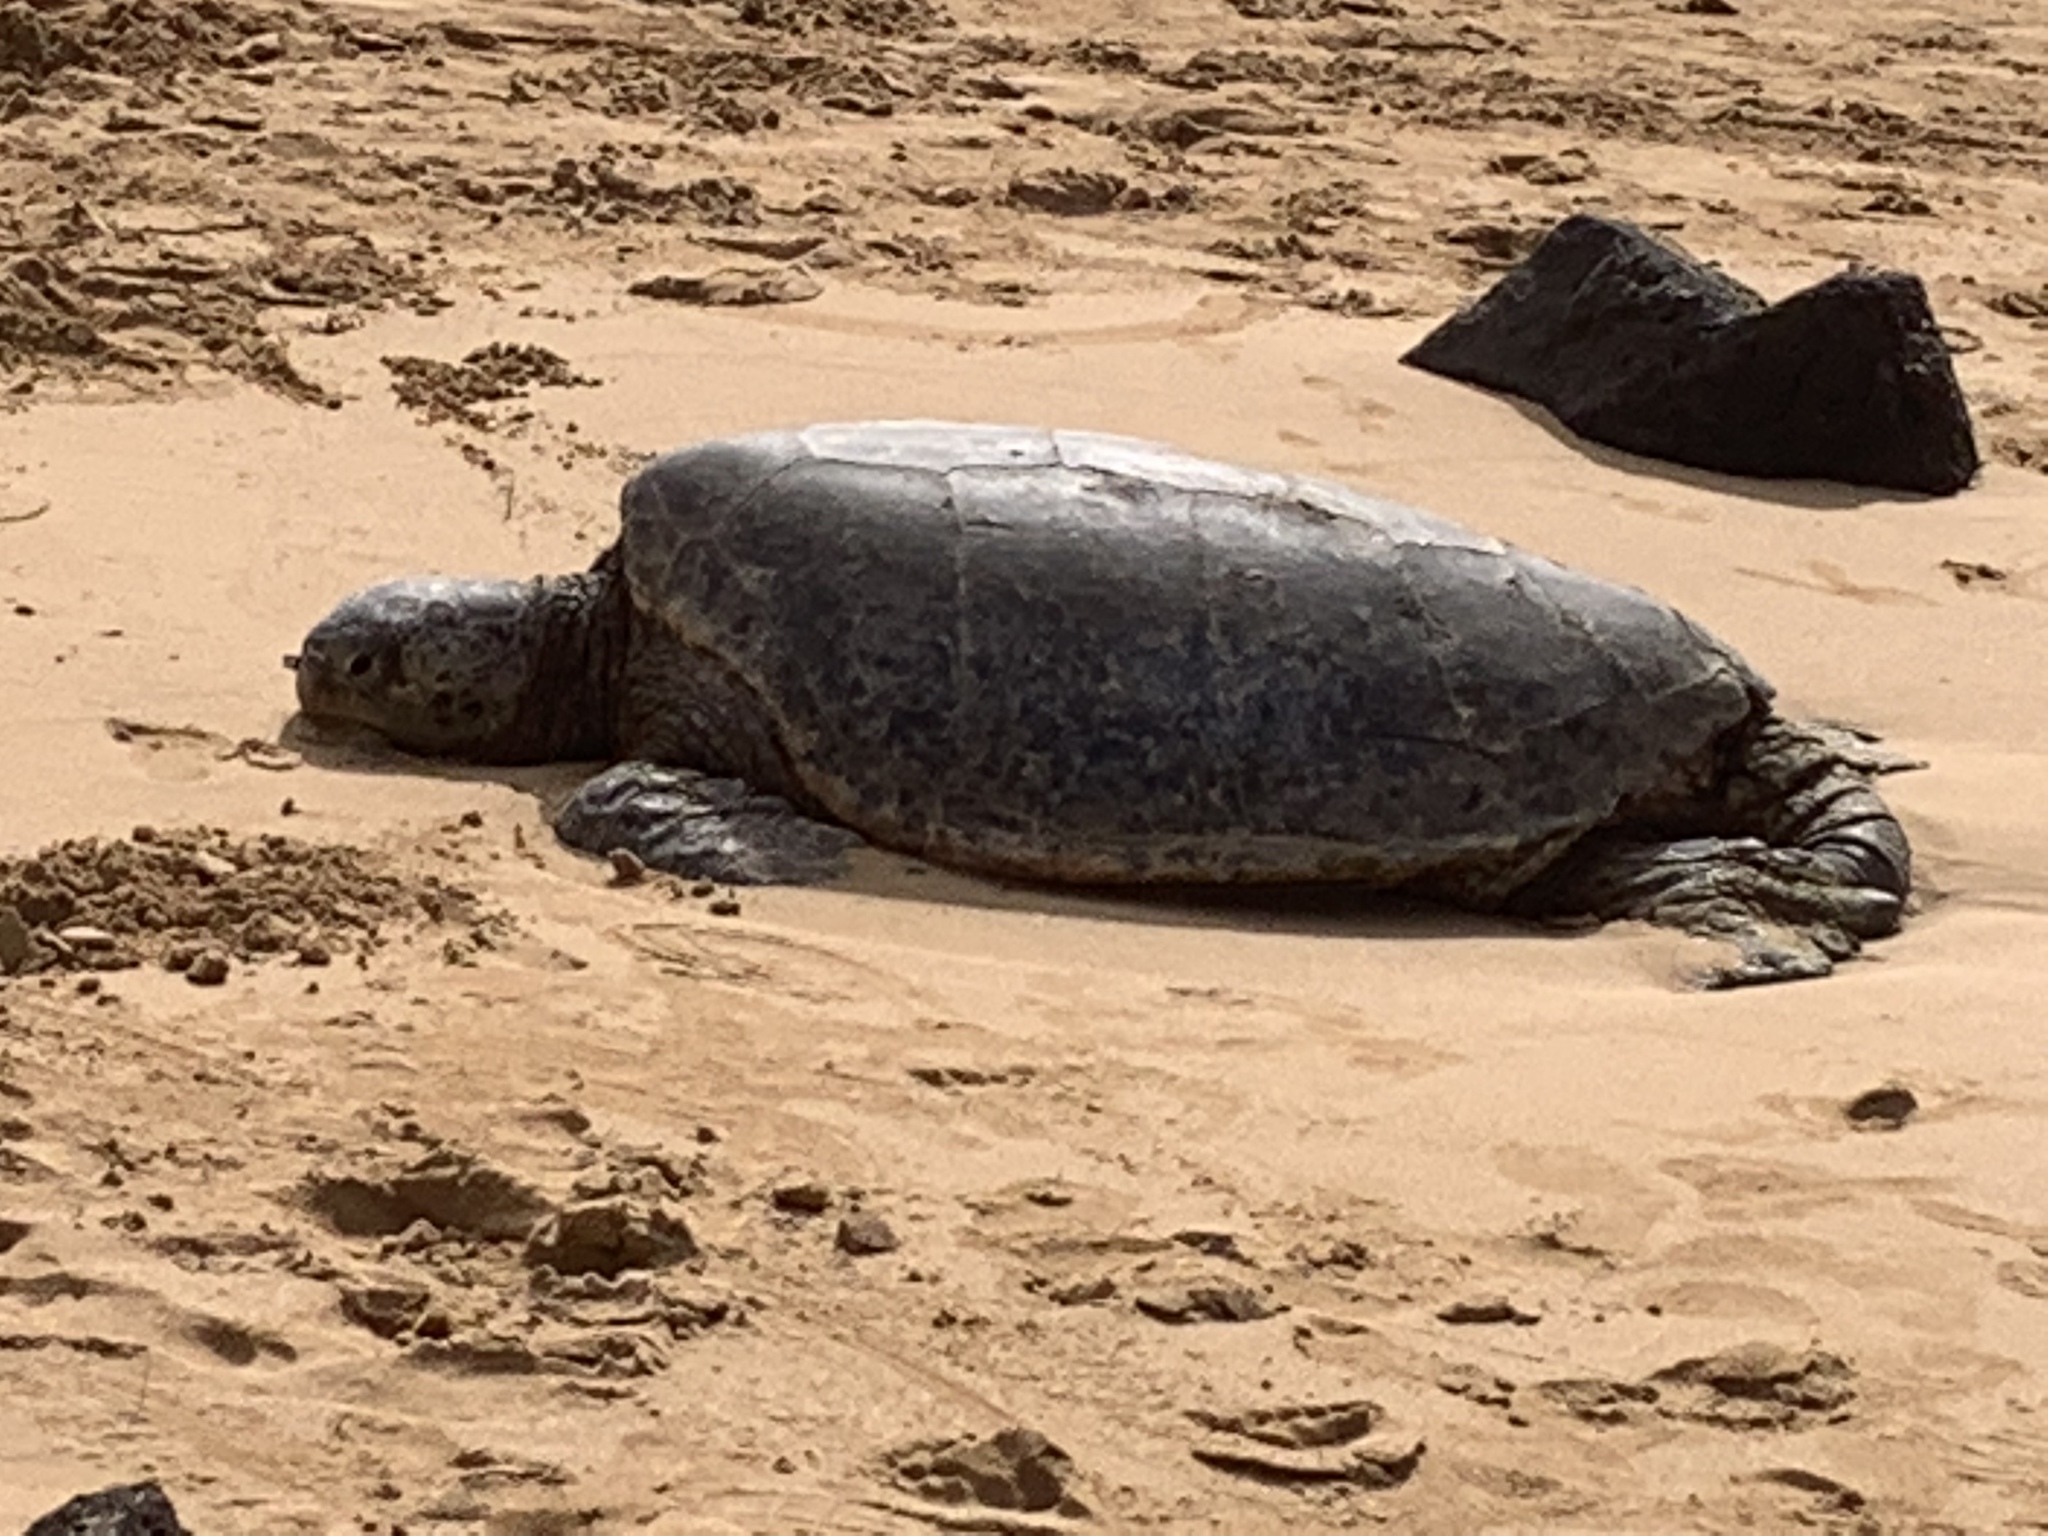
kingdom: Animalia
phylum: Chordata
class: Testudines
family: Cheloniidae
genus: Chelonia
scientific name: Chelonia mydas
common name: Green turtle
